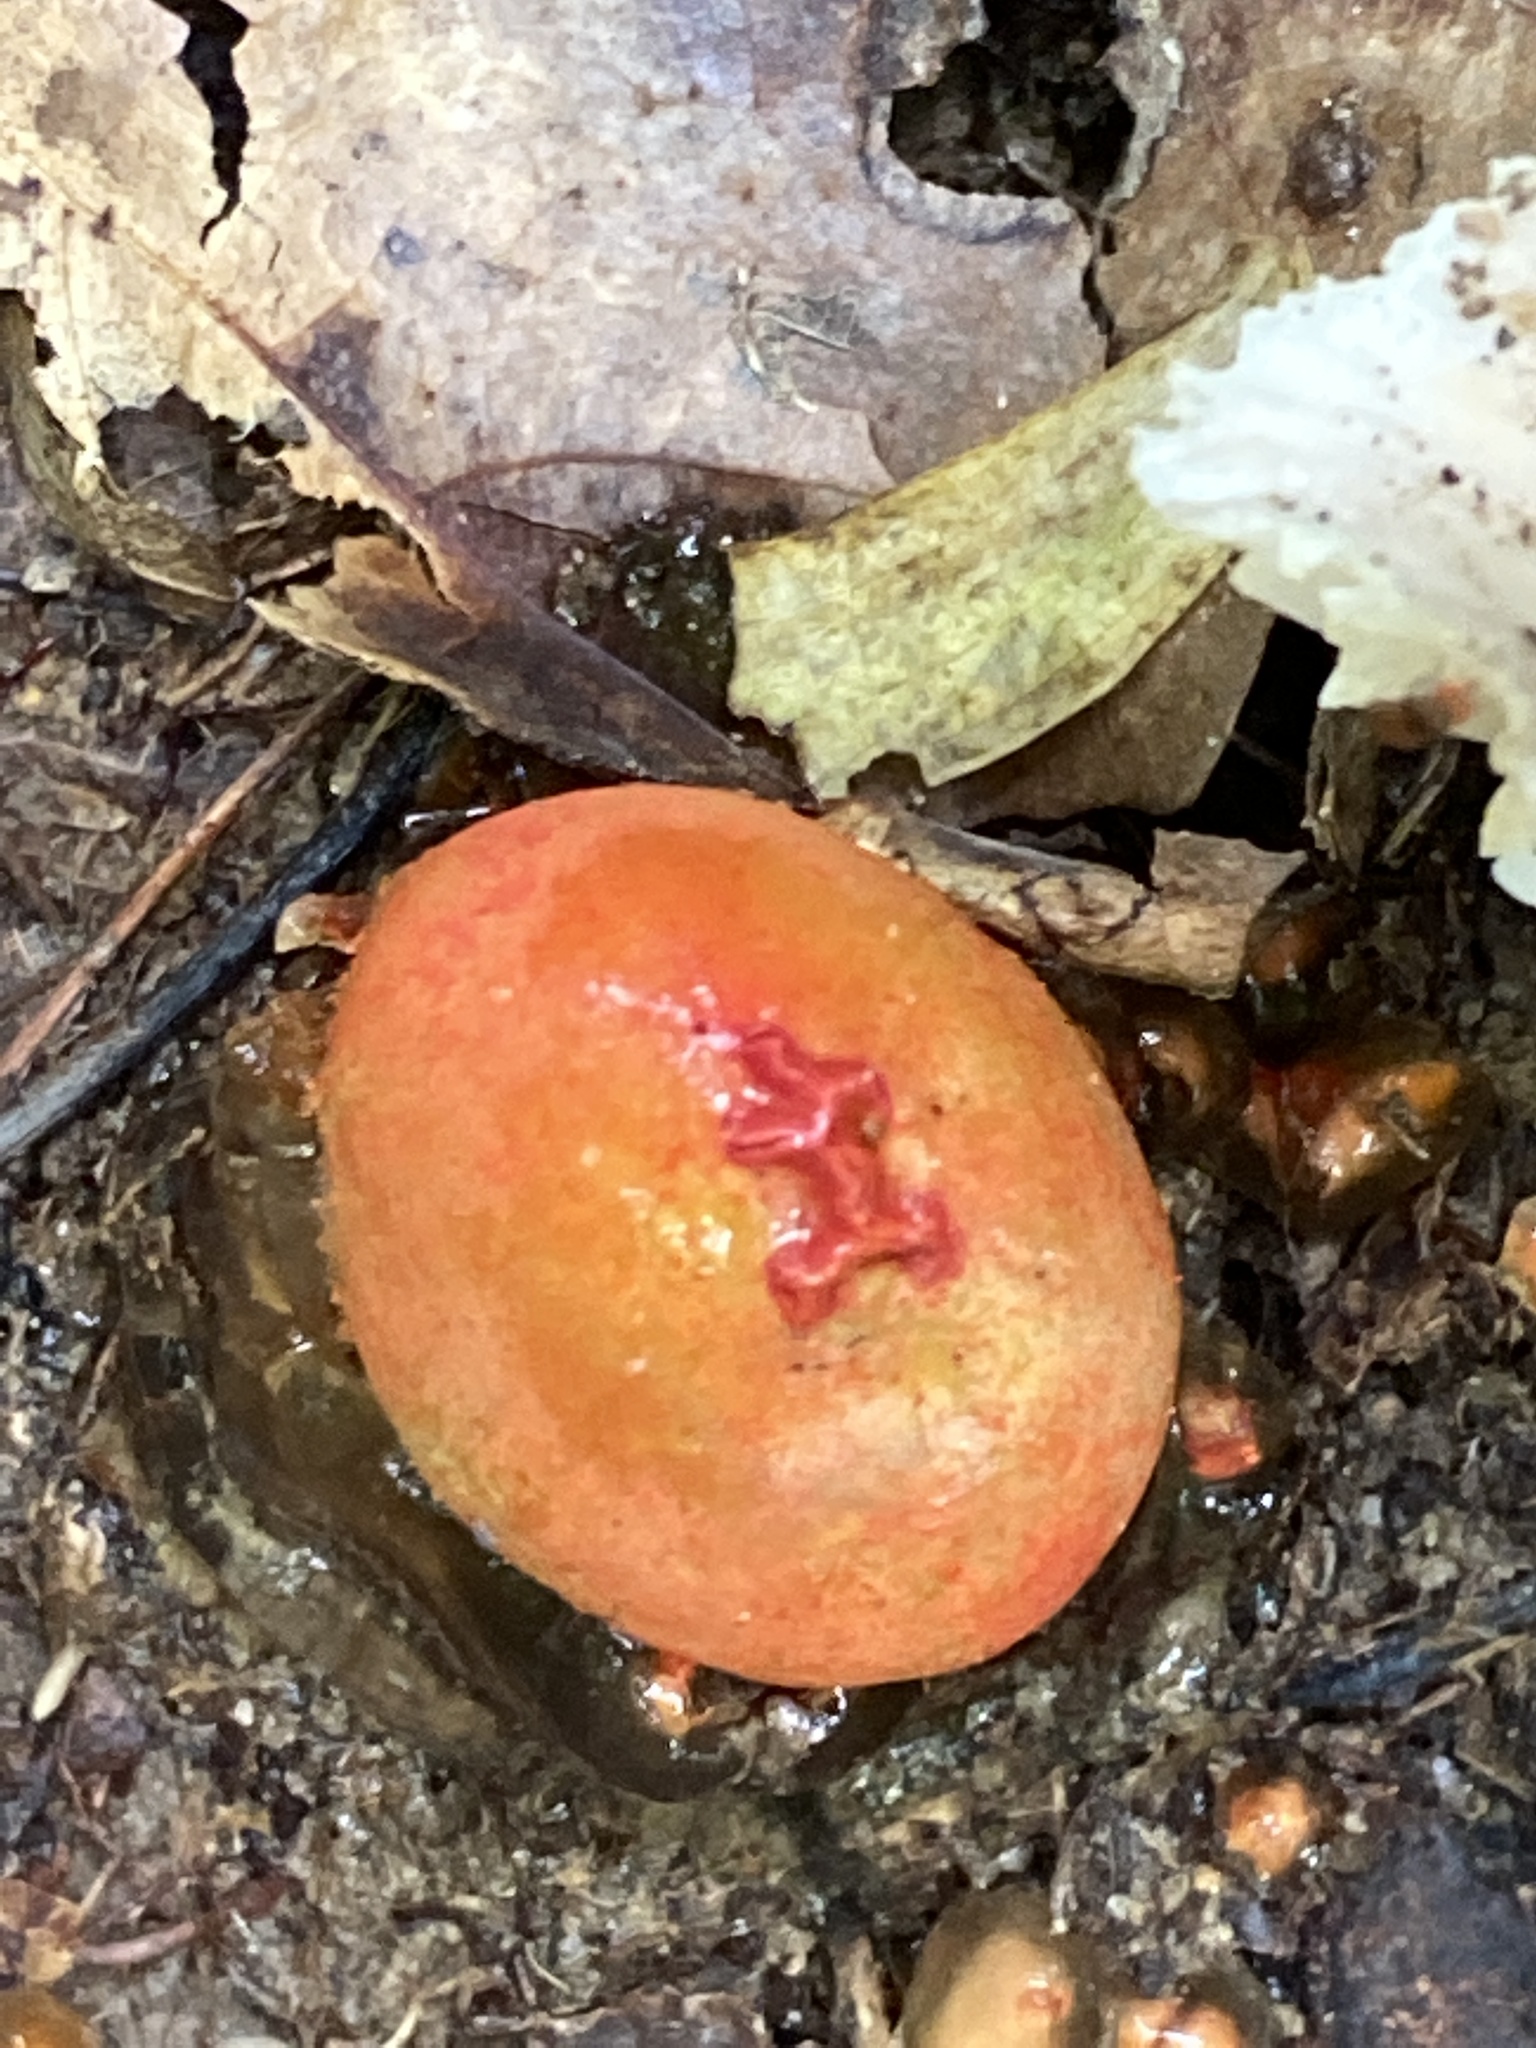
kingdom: Fungi
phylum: Basidiomycota
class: Agaricomycetes
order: Boletales
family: Calostomataceae
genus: Calostoma
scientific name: Calostoma cinnabarinum
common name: Stalked puffball-in-aspic
